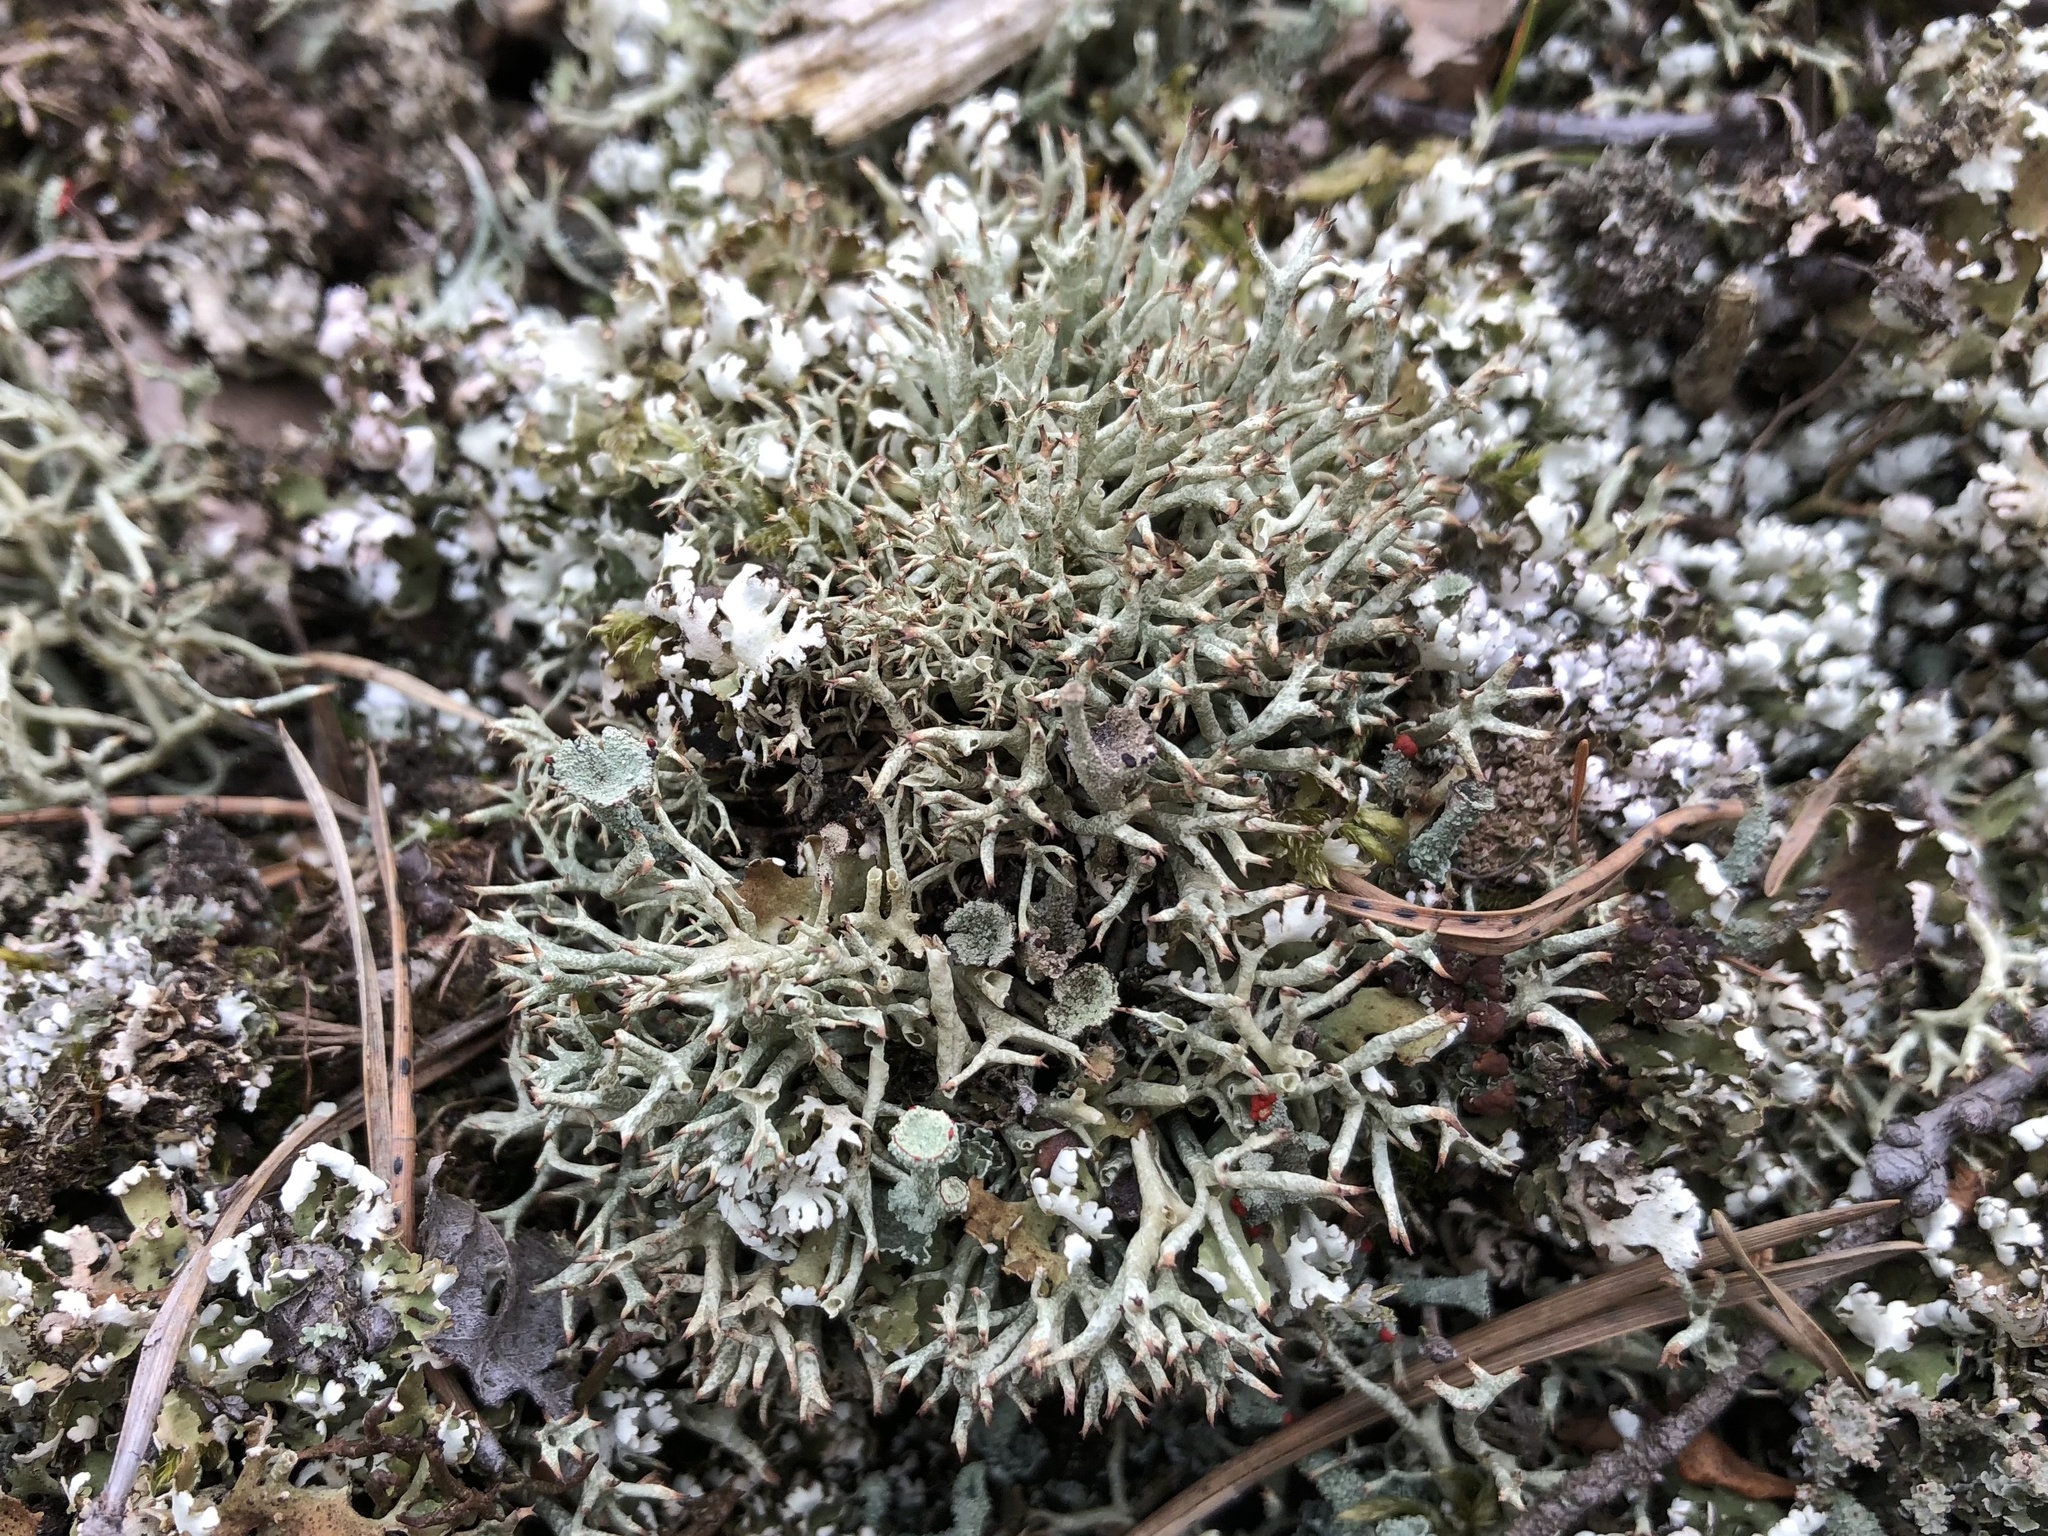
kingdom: Fungi
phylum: Ascomycota
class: Lecanoromycetes
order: Lecanorales
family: Cladoniaceae
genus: Cladonia
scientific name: Cladonia uncialis
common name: Thorn lichen
